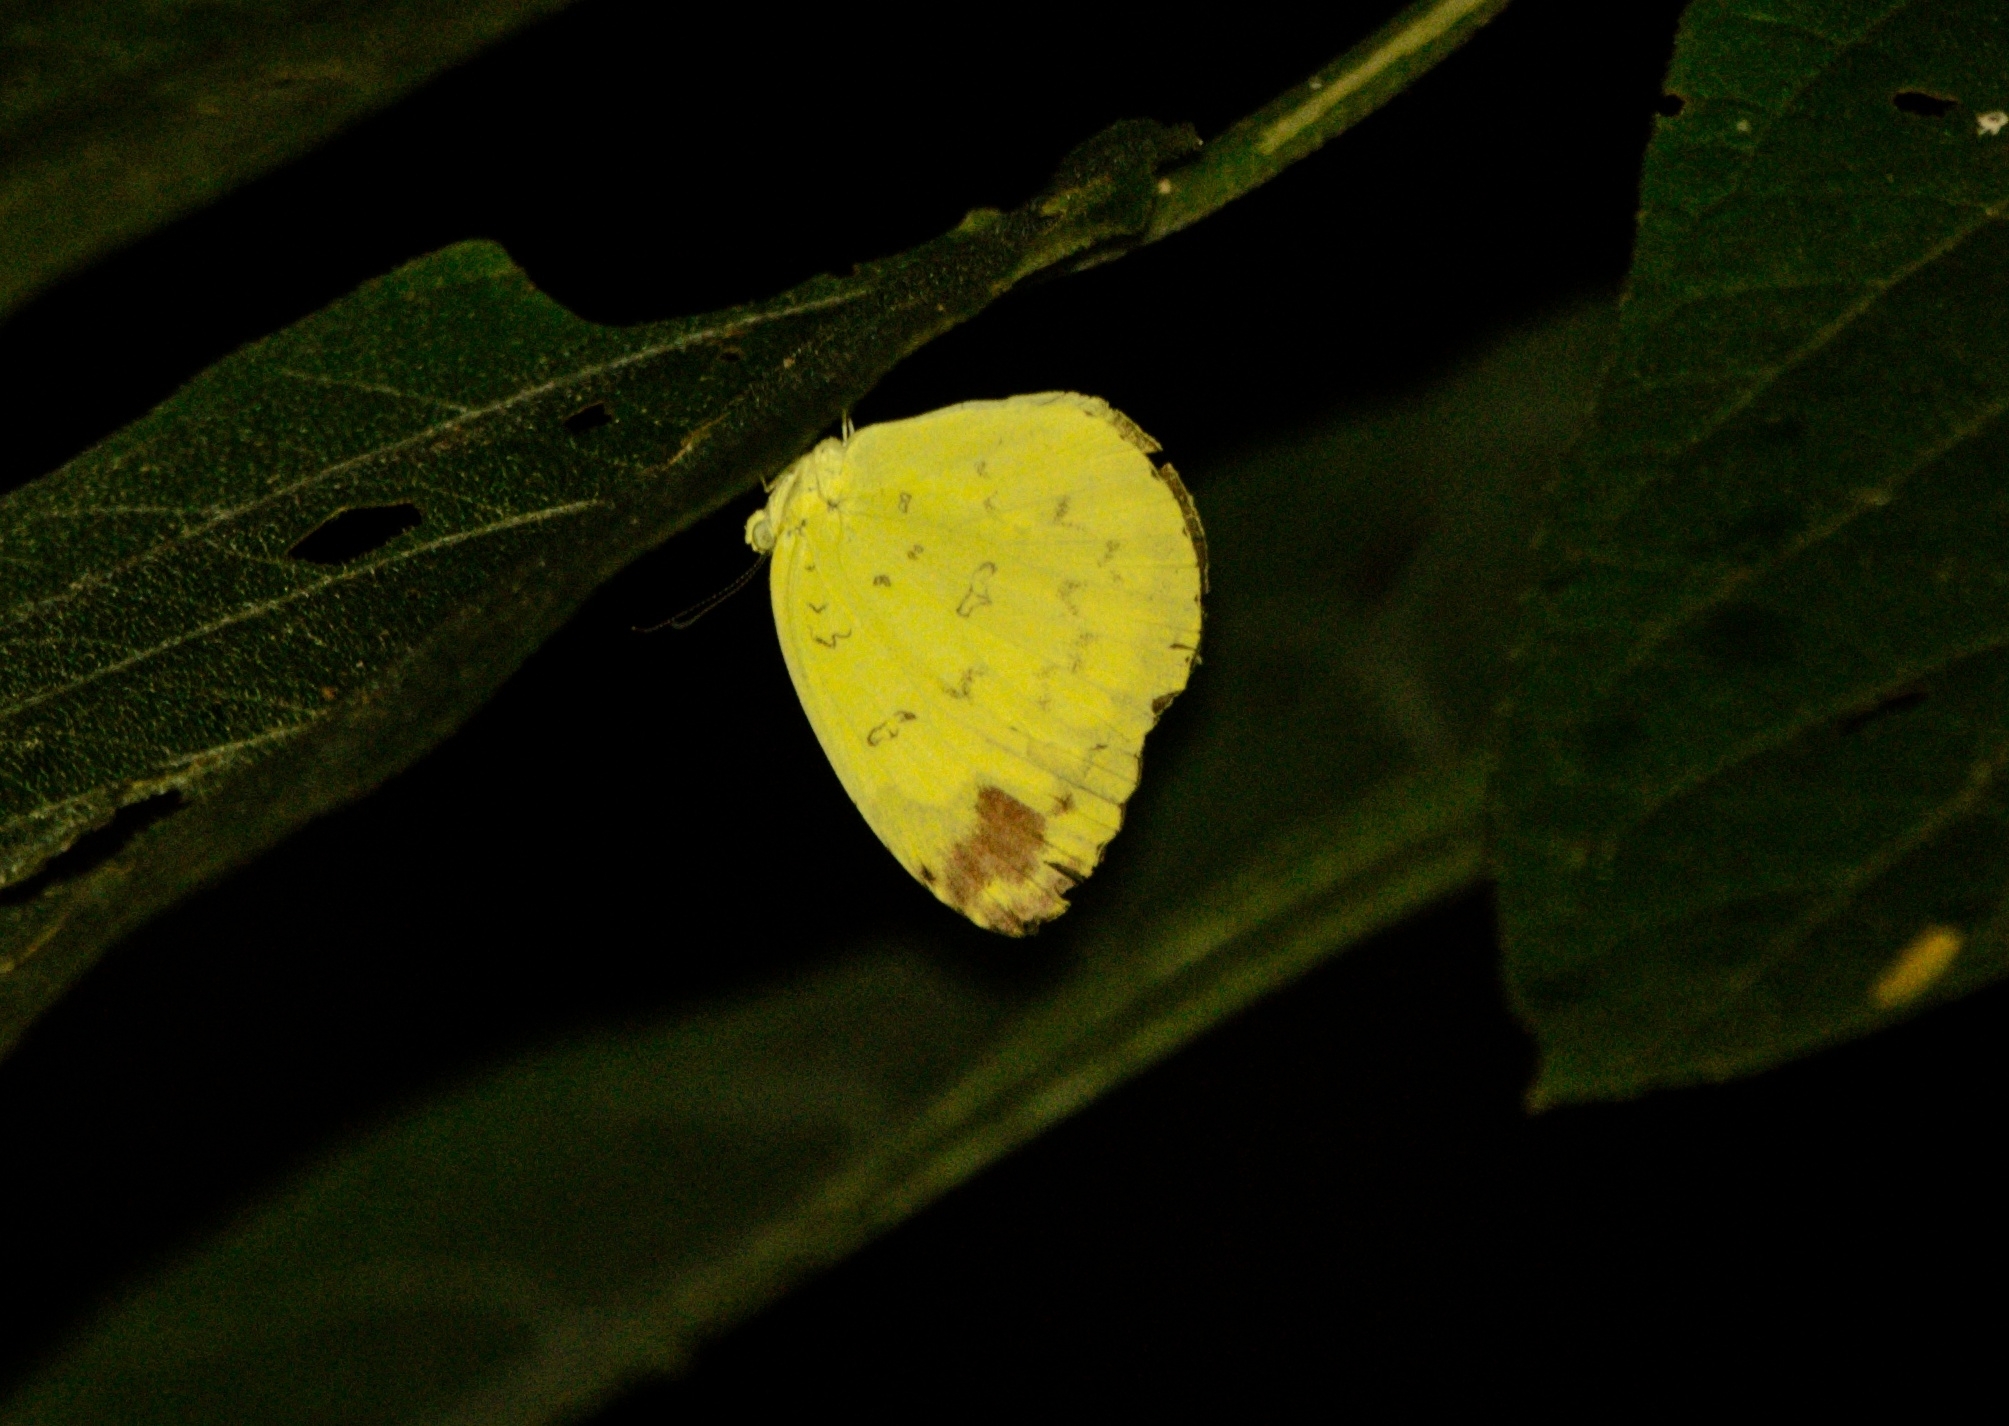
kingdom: Animalia
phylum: Arthropoda
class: Insecta
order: Lepidoptera
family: Pieridae
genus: Eurema
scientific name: Eurema blanda
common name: Three-spot grass yellow
